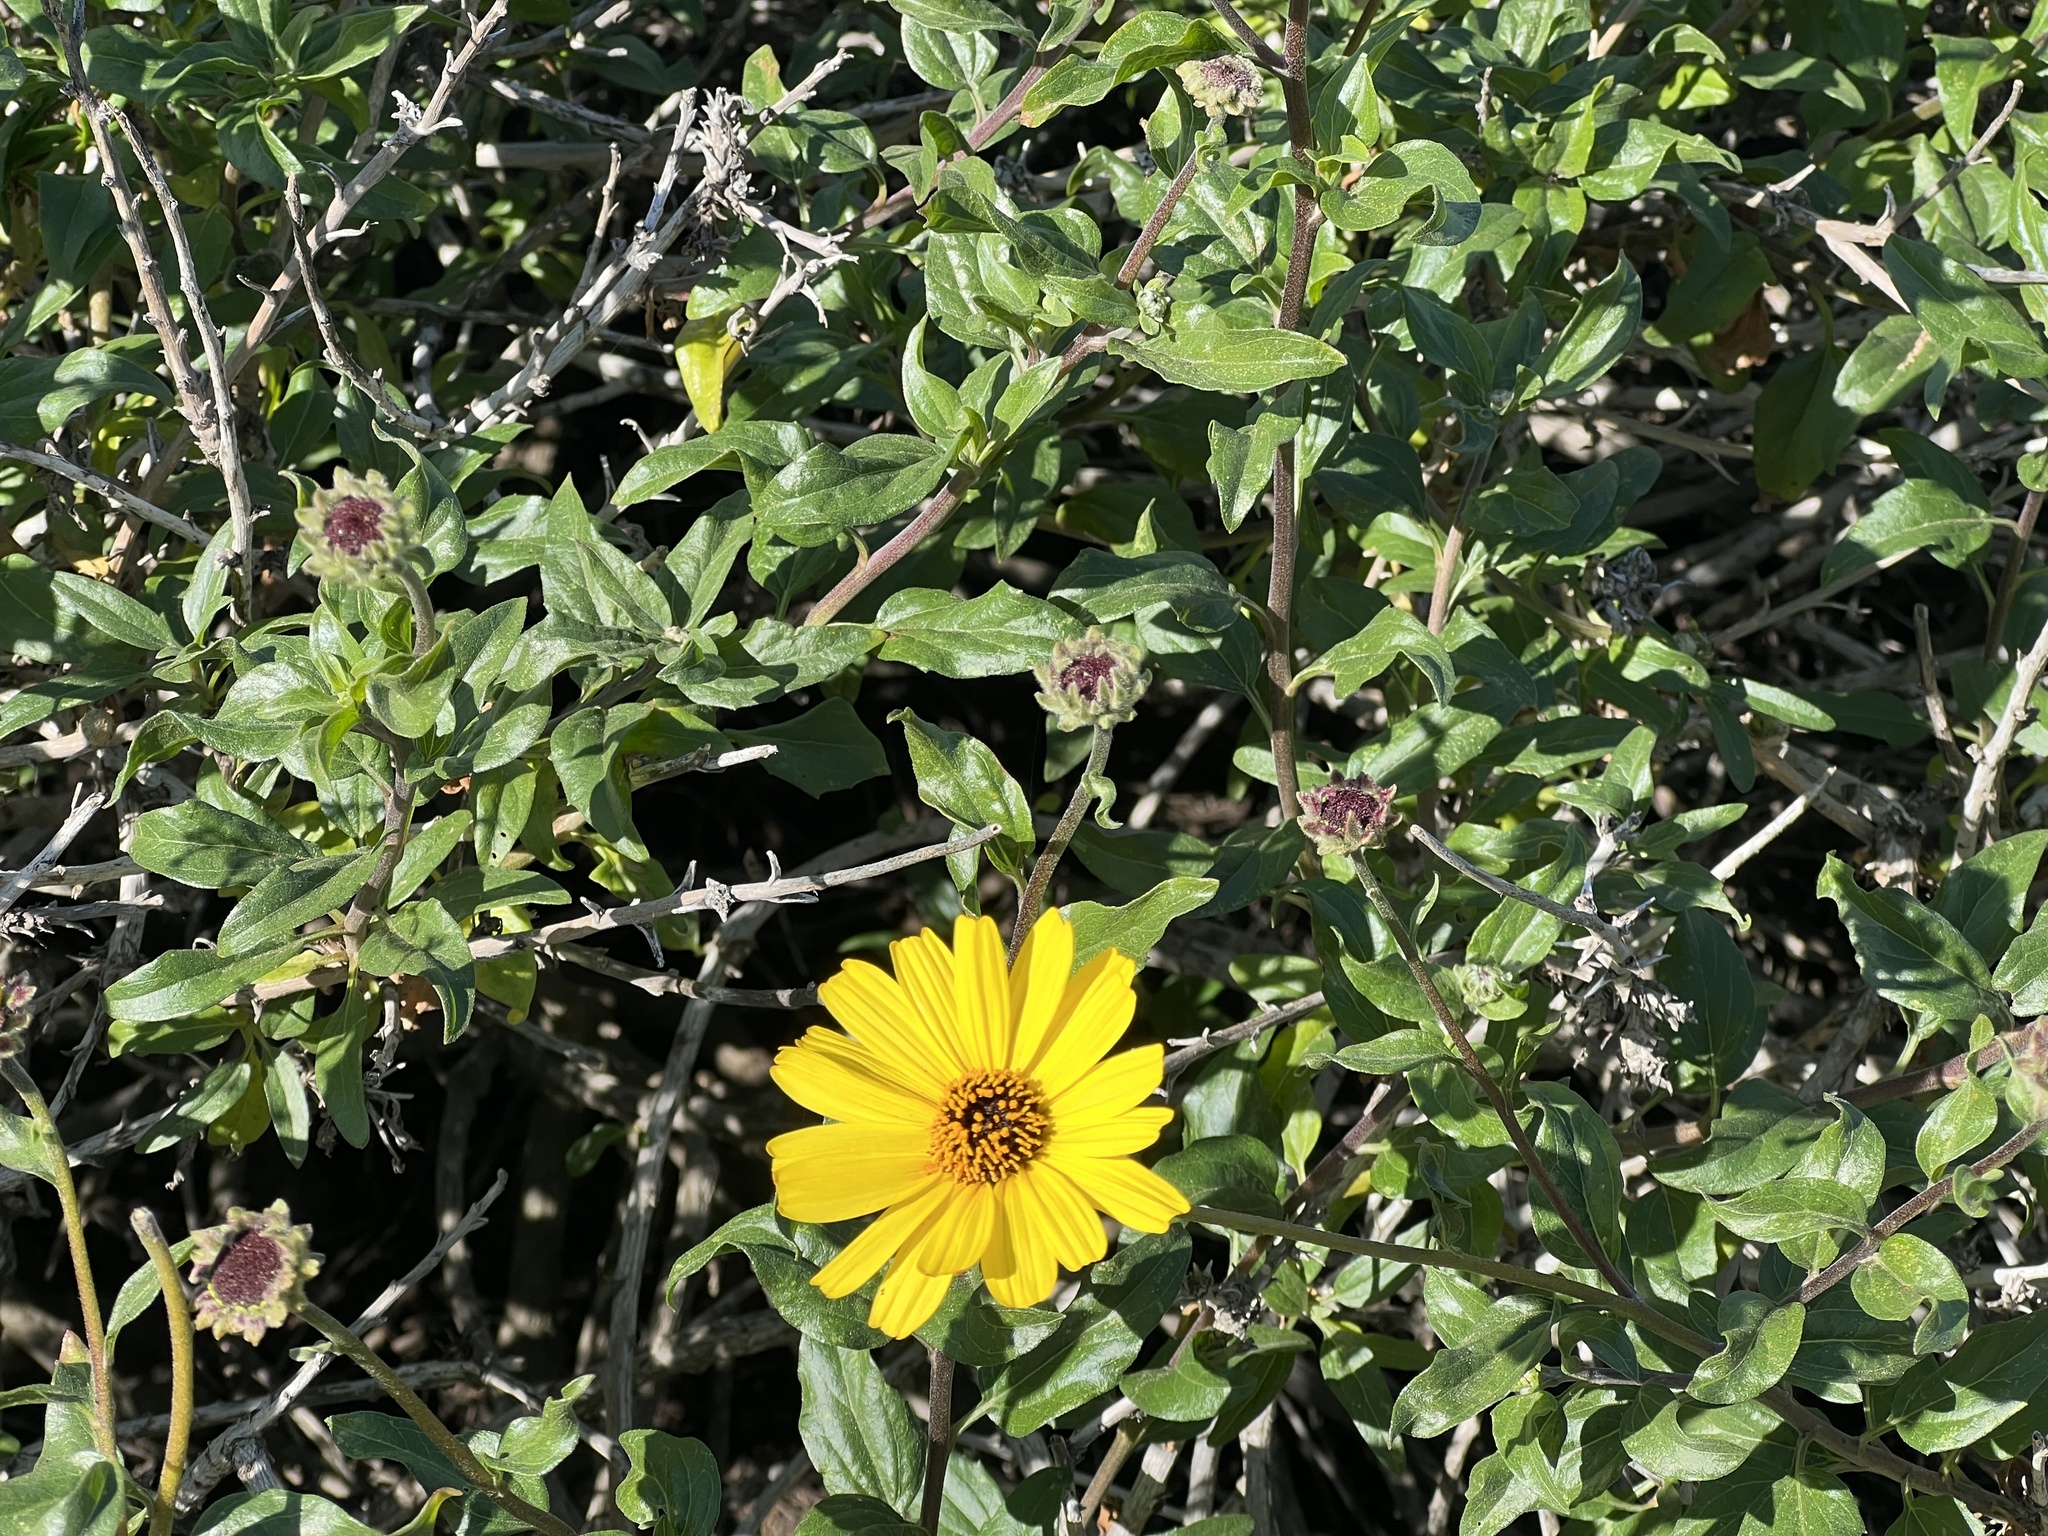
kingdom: Plantae
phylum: Tracheophyta
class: Magnoliopsida
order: Asterales
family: Asteraceae
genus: Encelia
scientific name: Encelia californica
